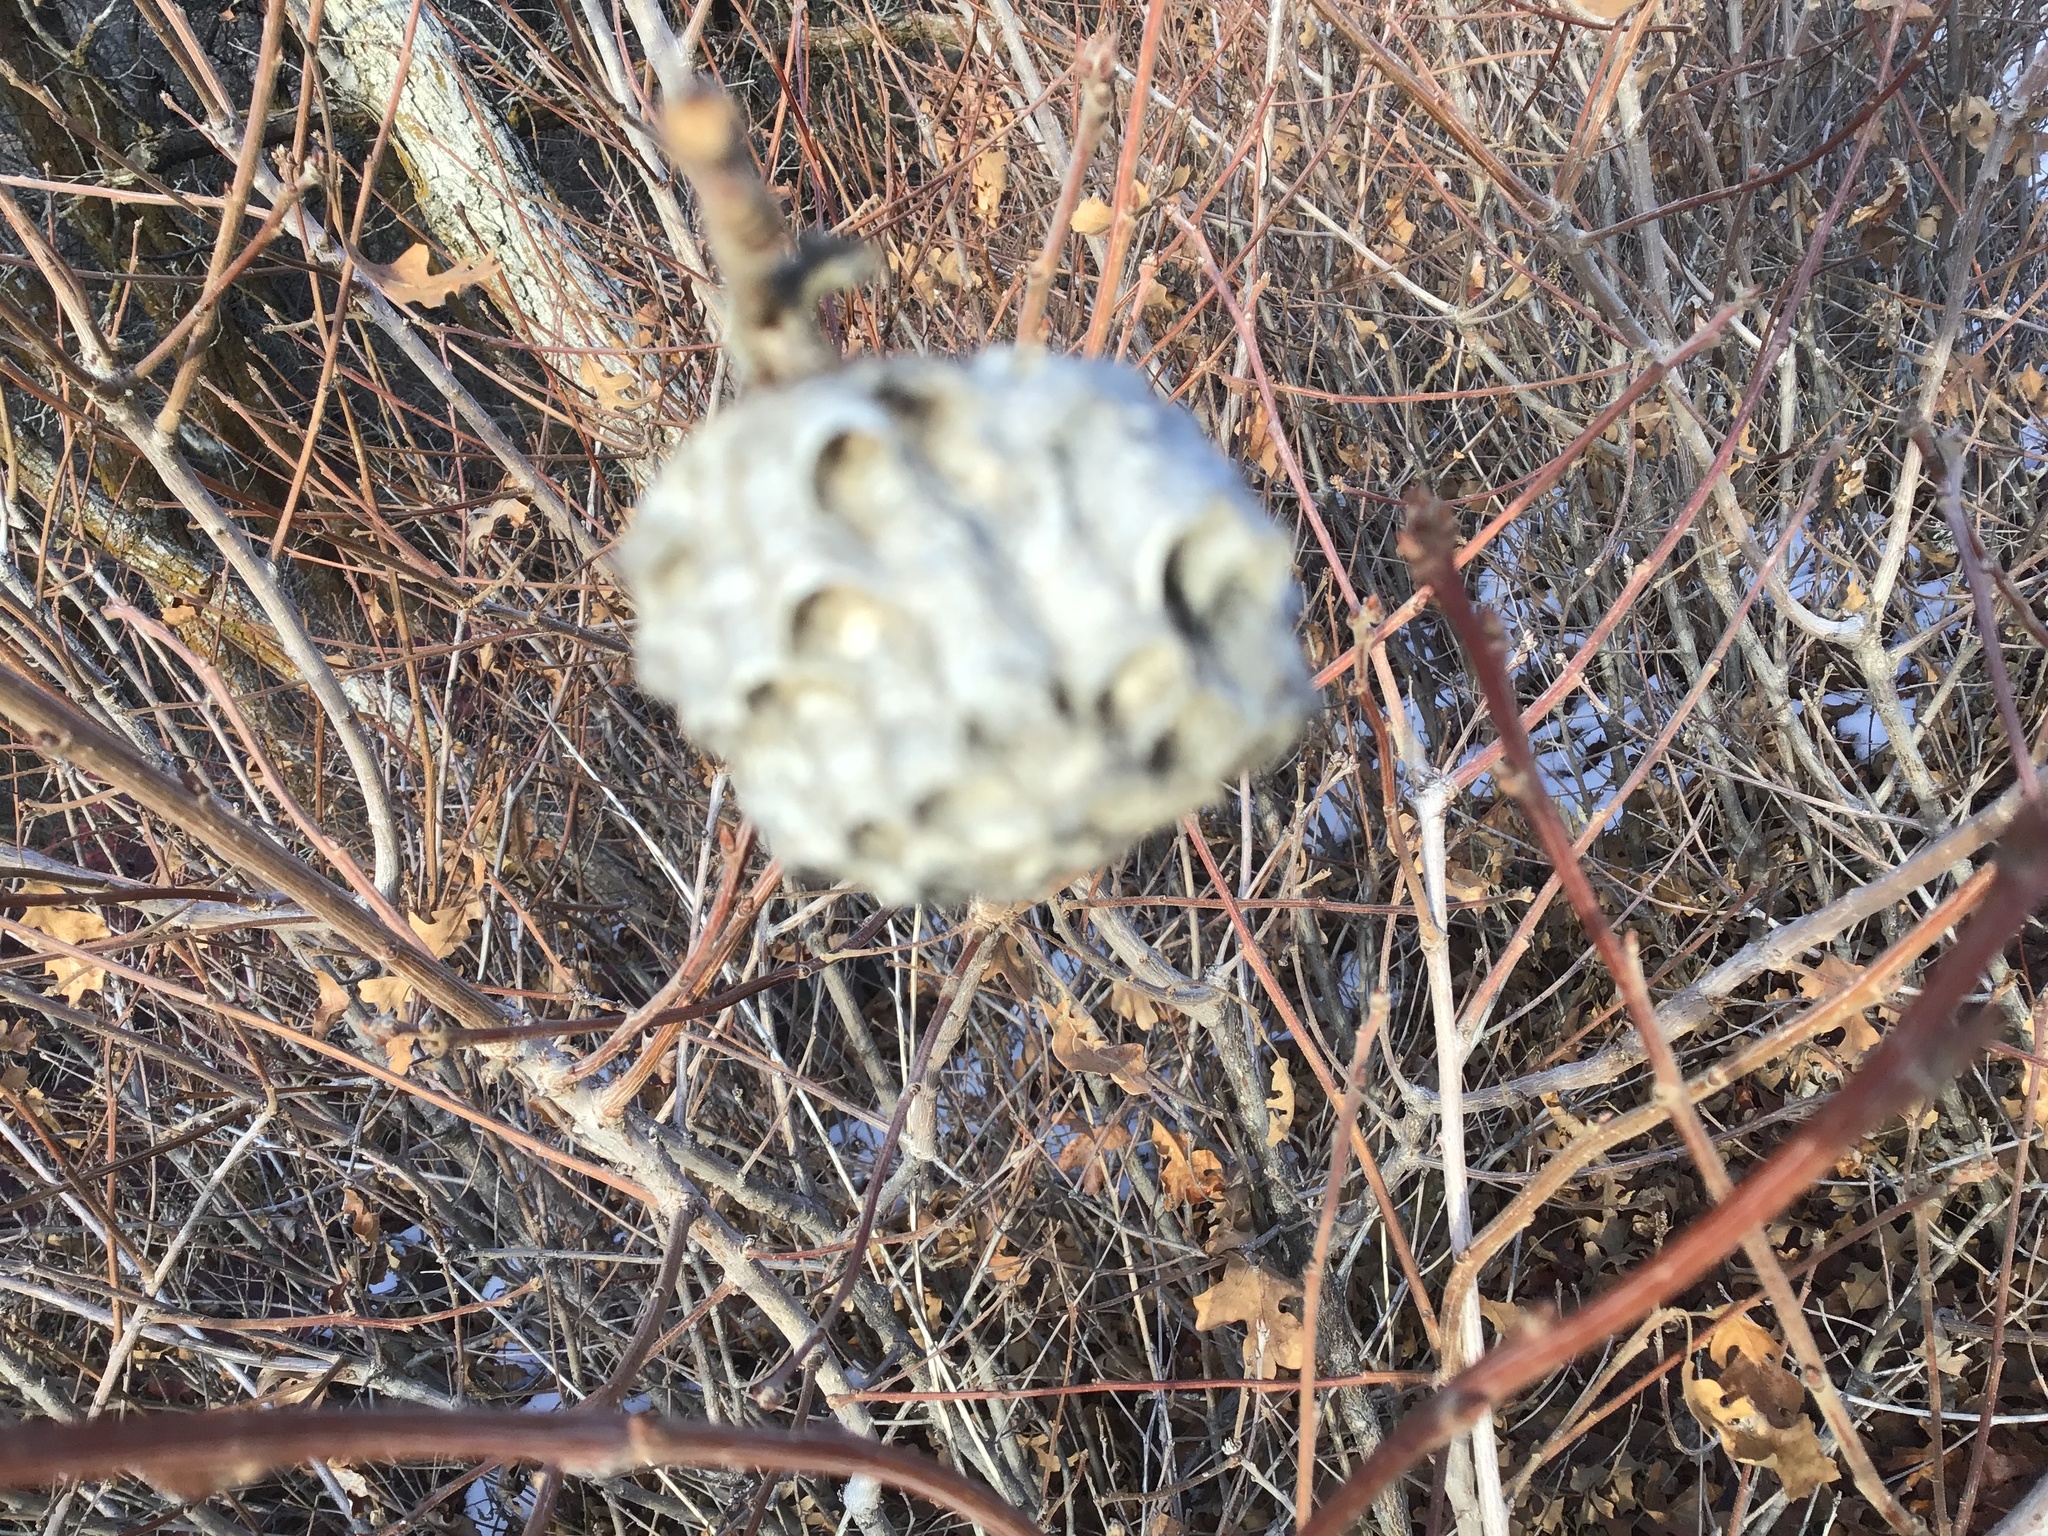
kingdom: Animalia
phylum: Arthropoda
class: Insecta
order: Hymenoptera
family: Vespidae
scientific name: Vespidae
